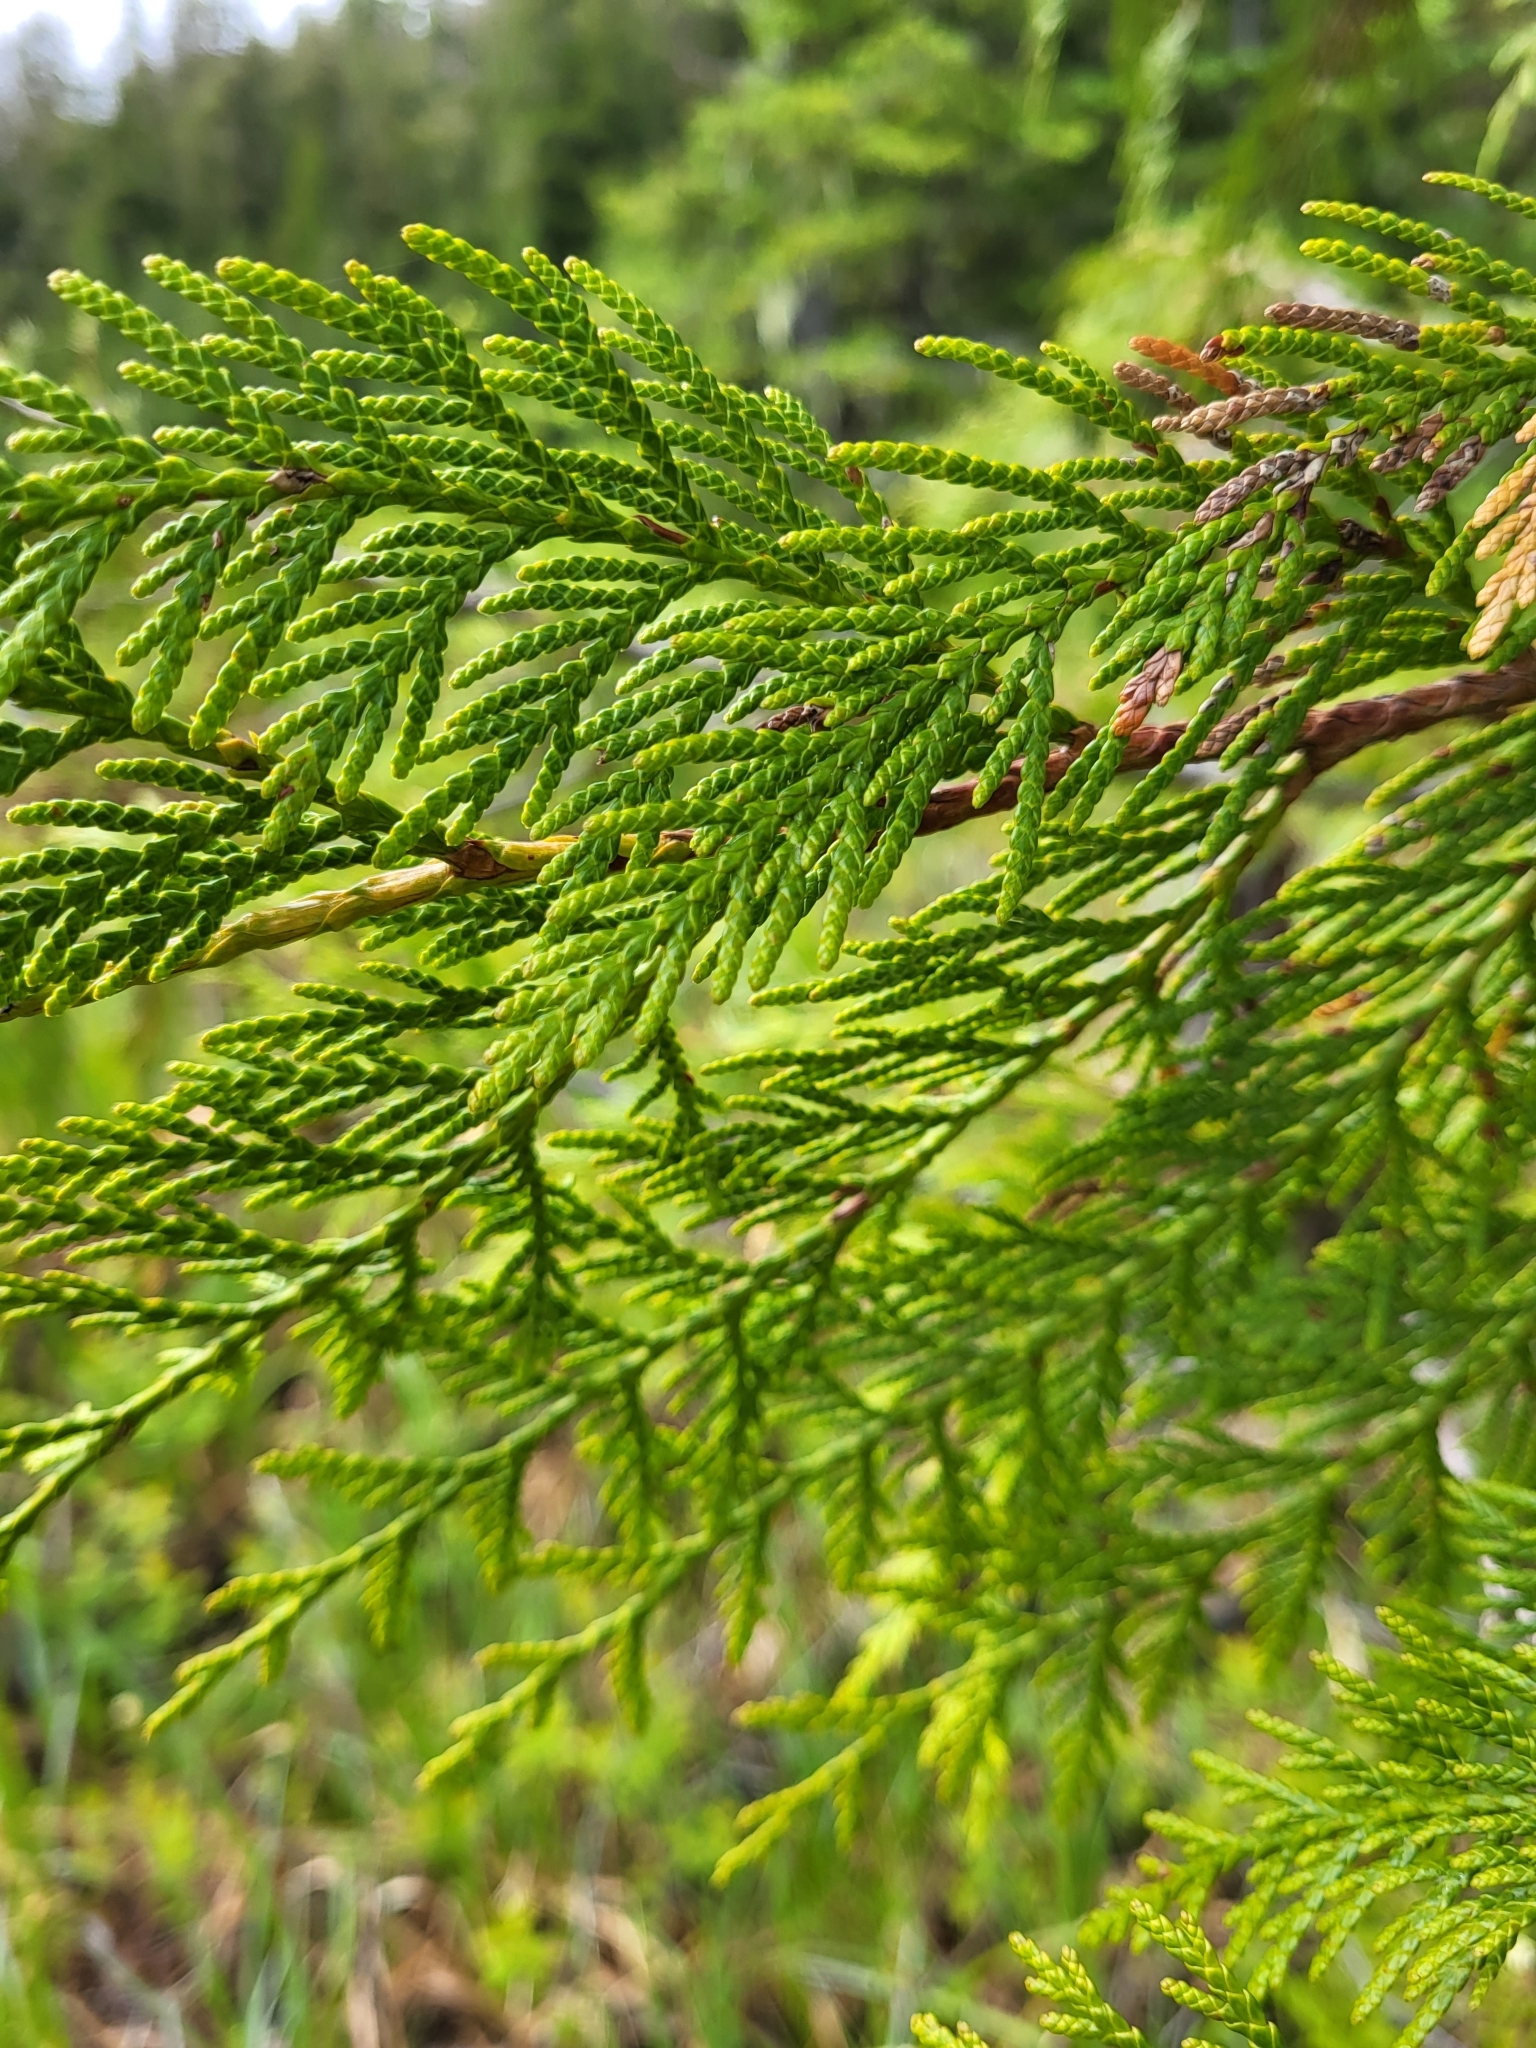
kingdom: Plantae
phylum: Tracheophyta
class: Pinopsida
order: Pinales
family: Cupressaceae
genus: Thuja
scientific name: Thuja plicata
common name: Western red-cedar
